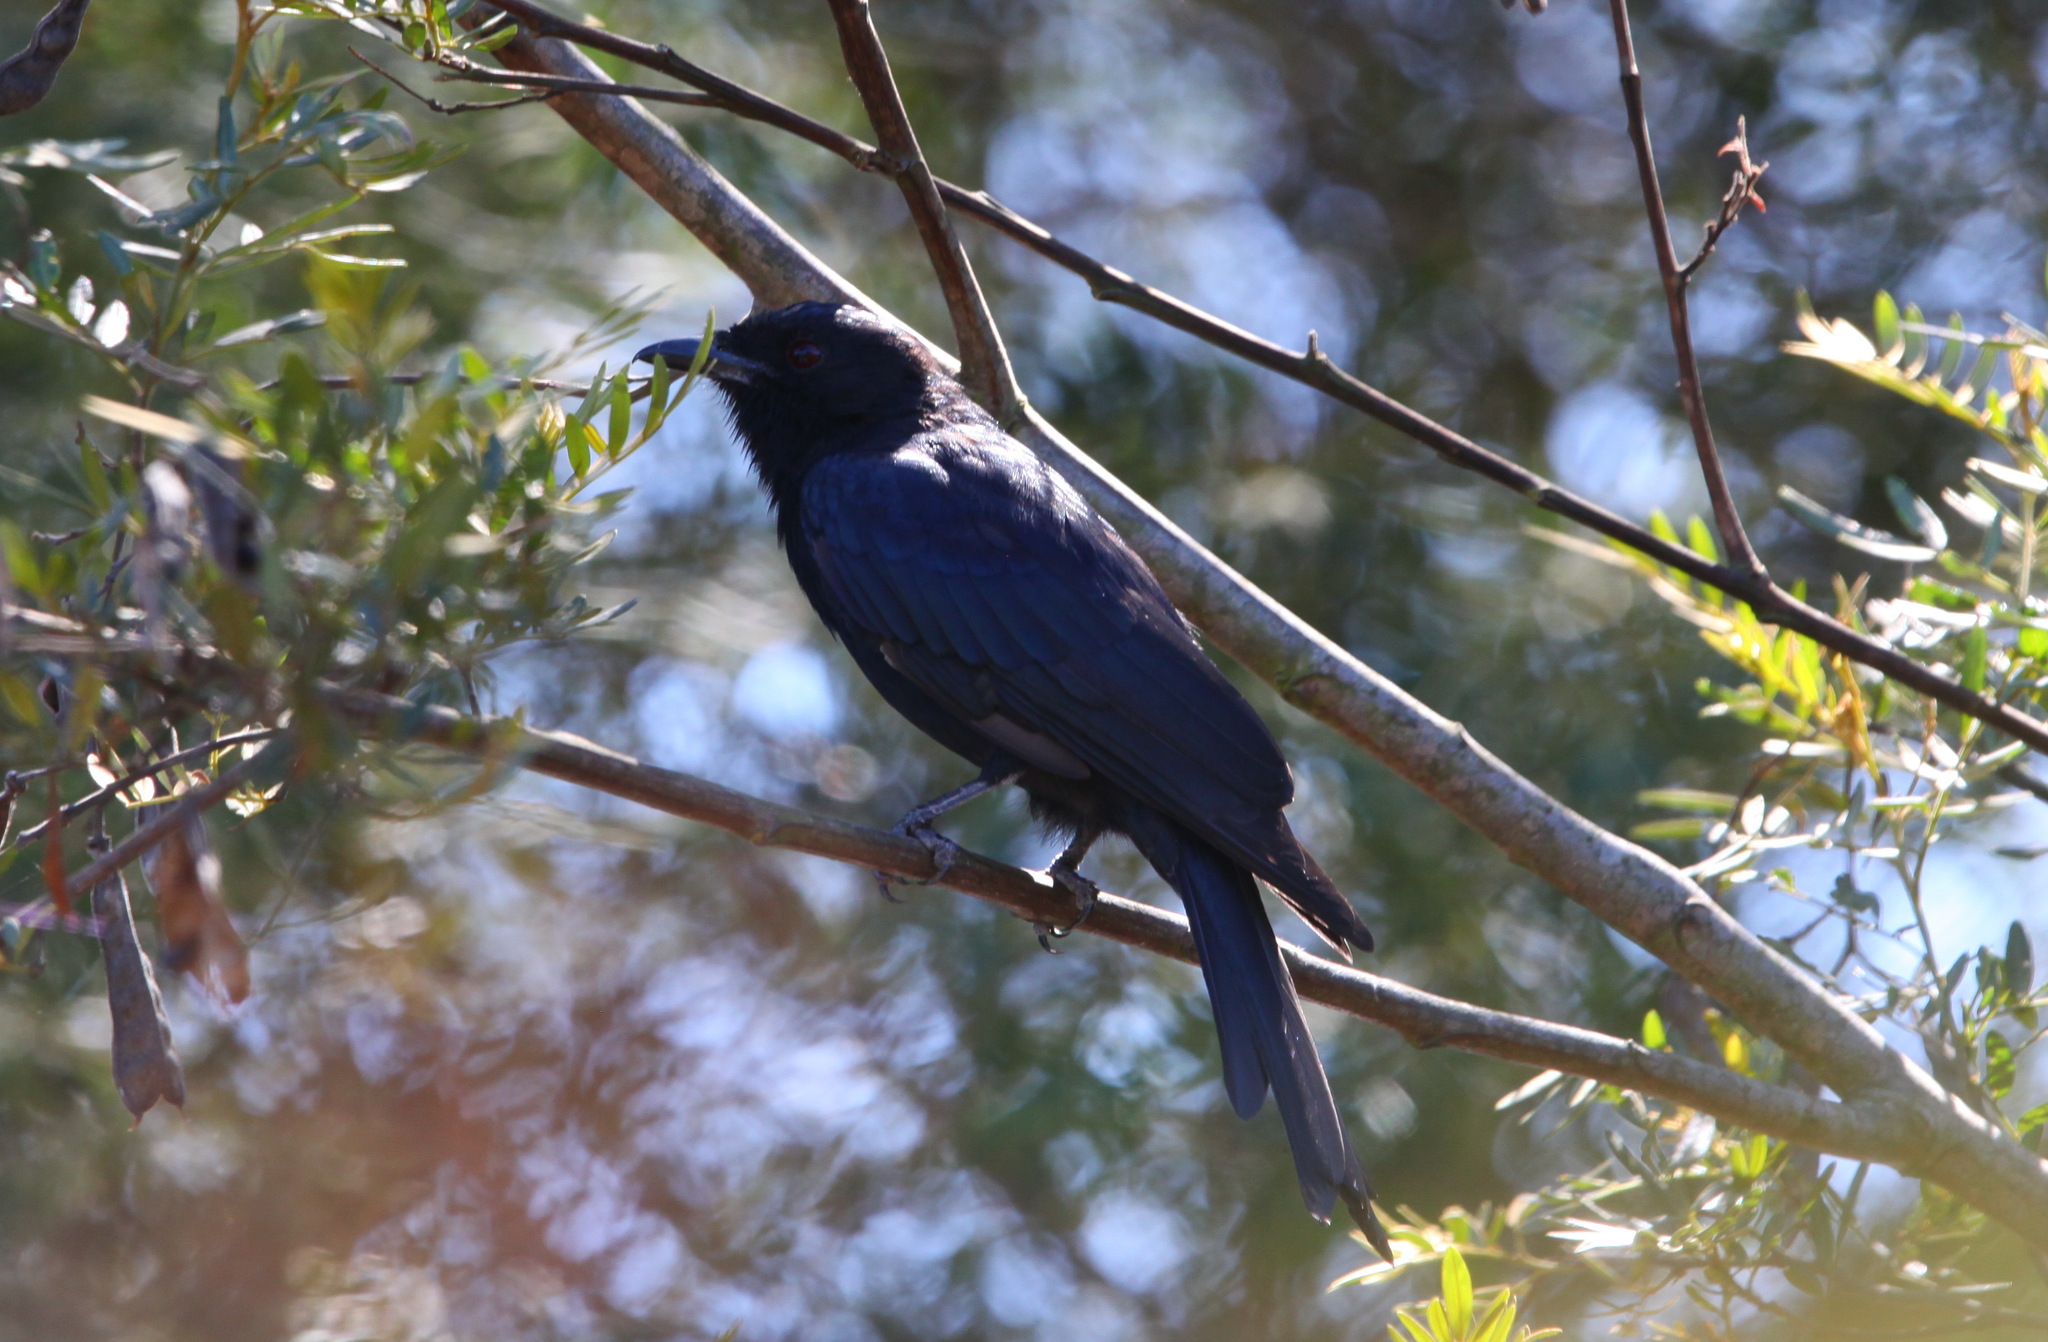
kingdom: Animalia
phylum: Chordata
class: Aves
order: Passeriformes
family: Dicruridae
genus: Dicrurus
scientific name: Dicrurus adsimilis
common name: Fork-tailed drongo
